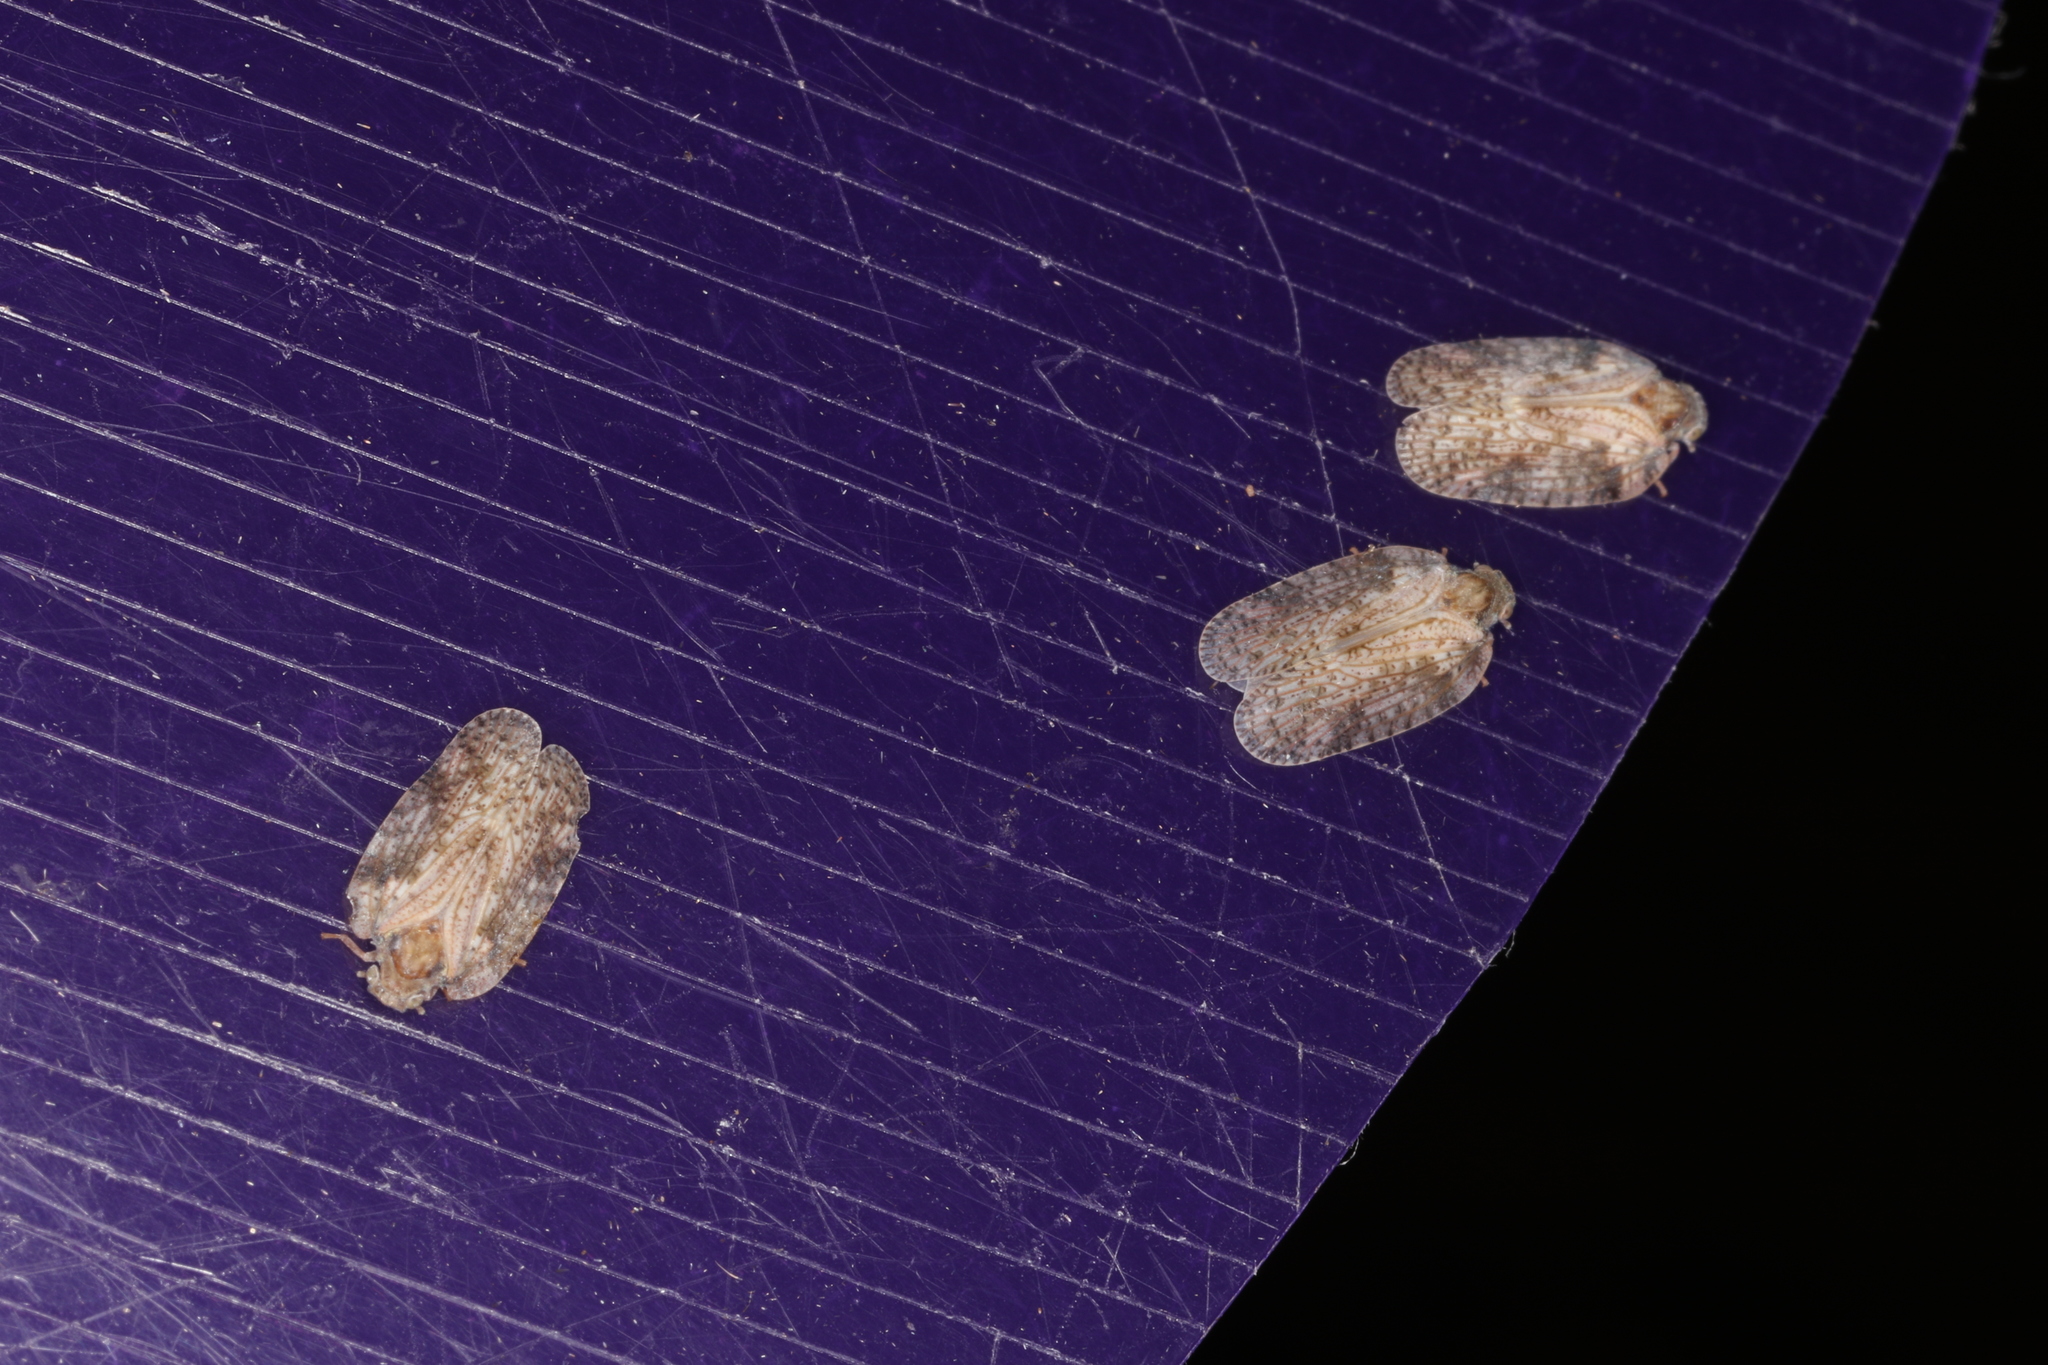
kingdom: Animalia
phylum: Arthropoda
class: Insecta
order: Hemiptera
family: Flatidae
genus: Jamella
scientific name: Jamella australiae
